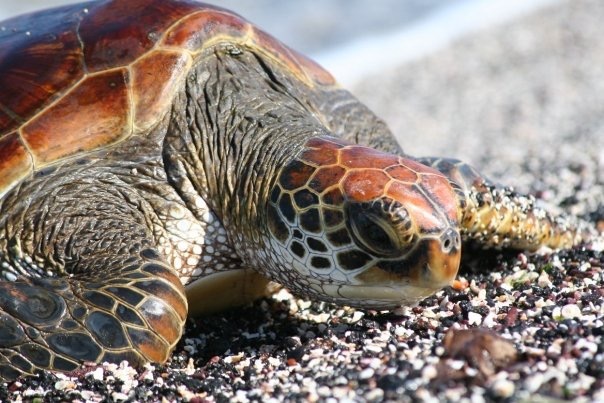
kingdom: Animalia
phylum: Chordata
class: Testudines
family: Cheloniidae
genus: Chelonia
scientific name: Chelonia mydas
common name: Green turtle
